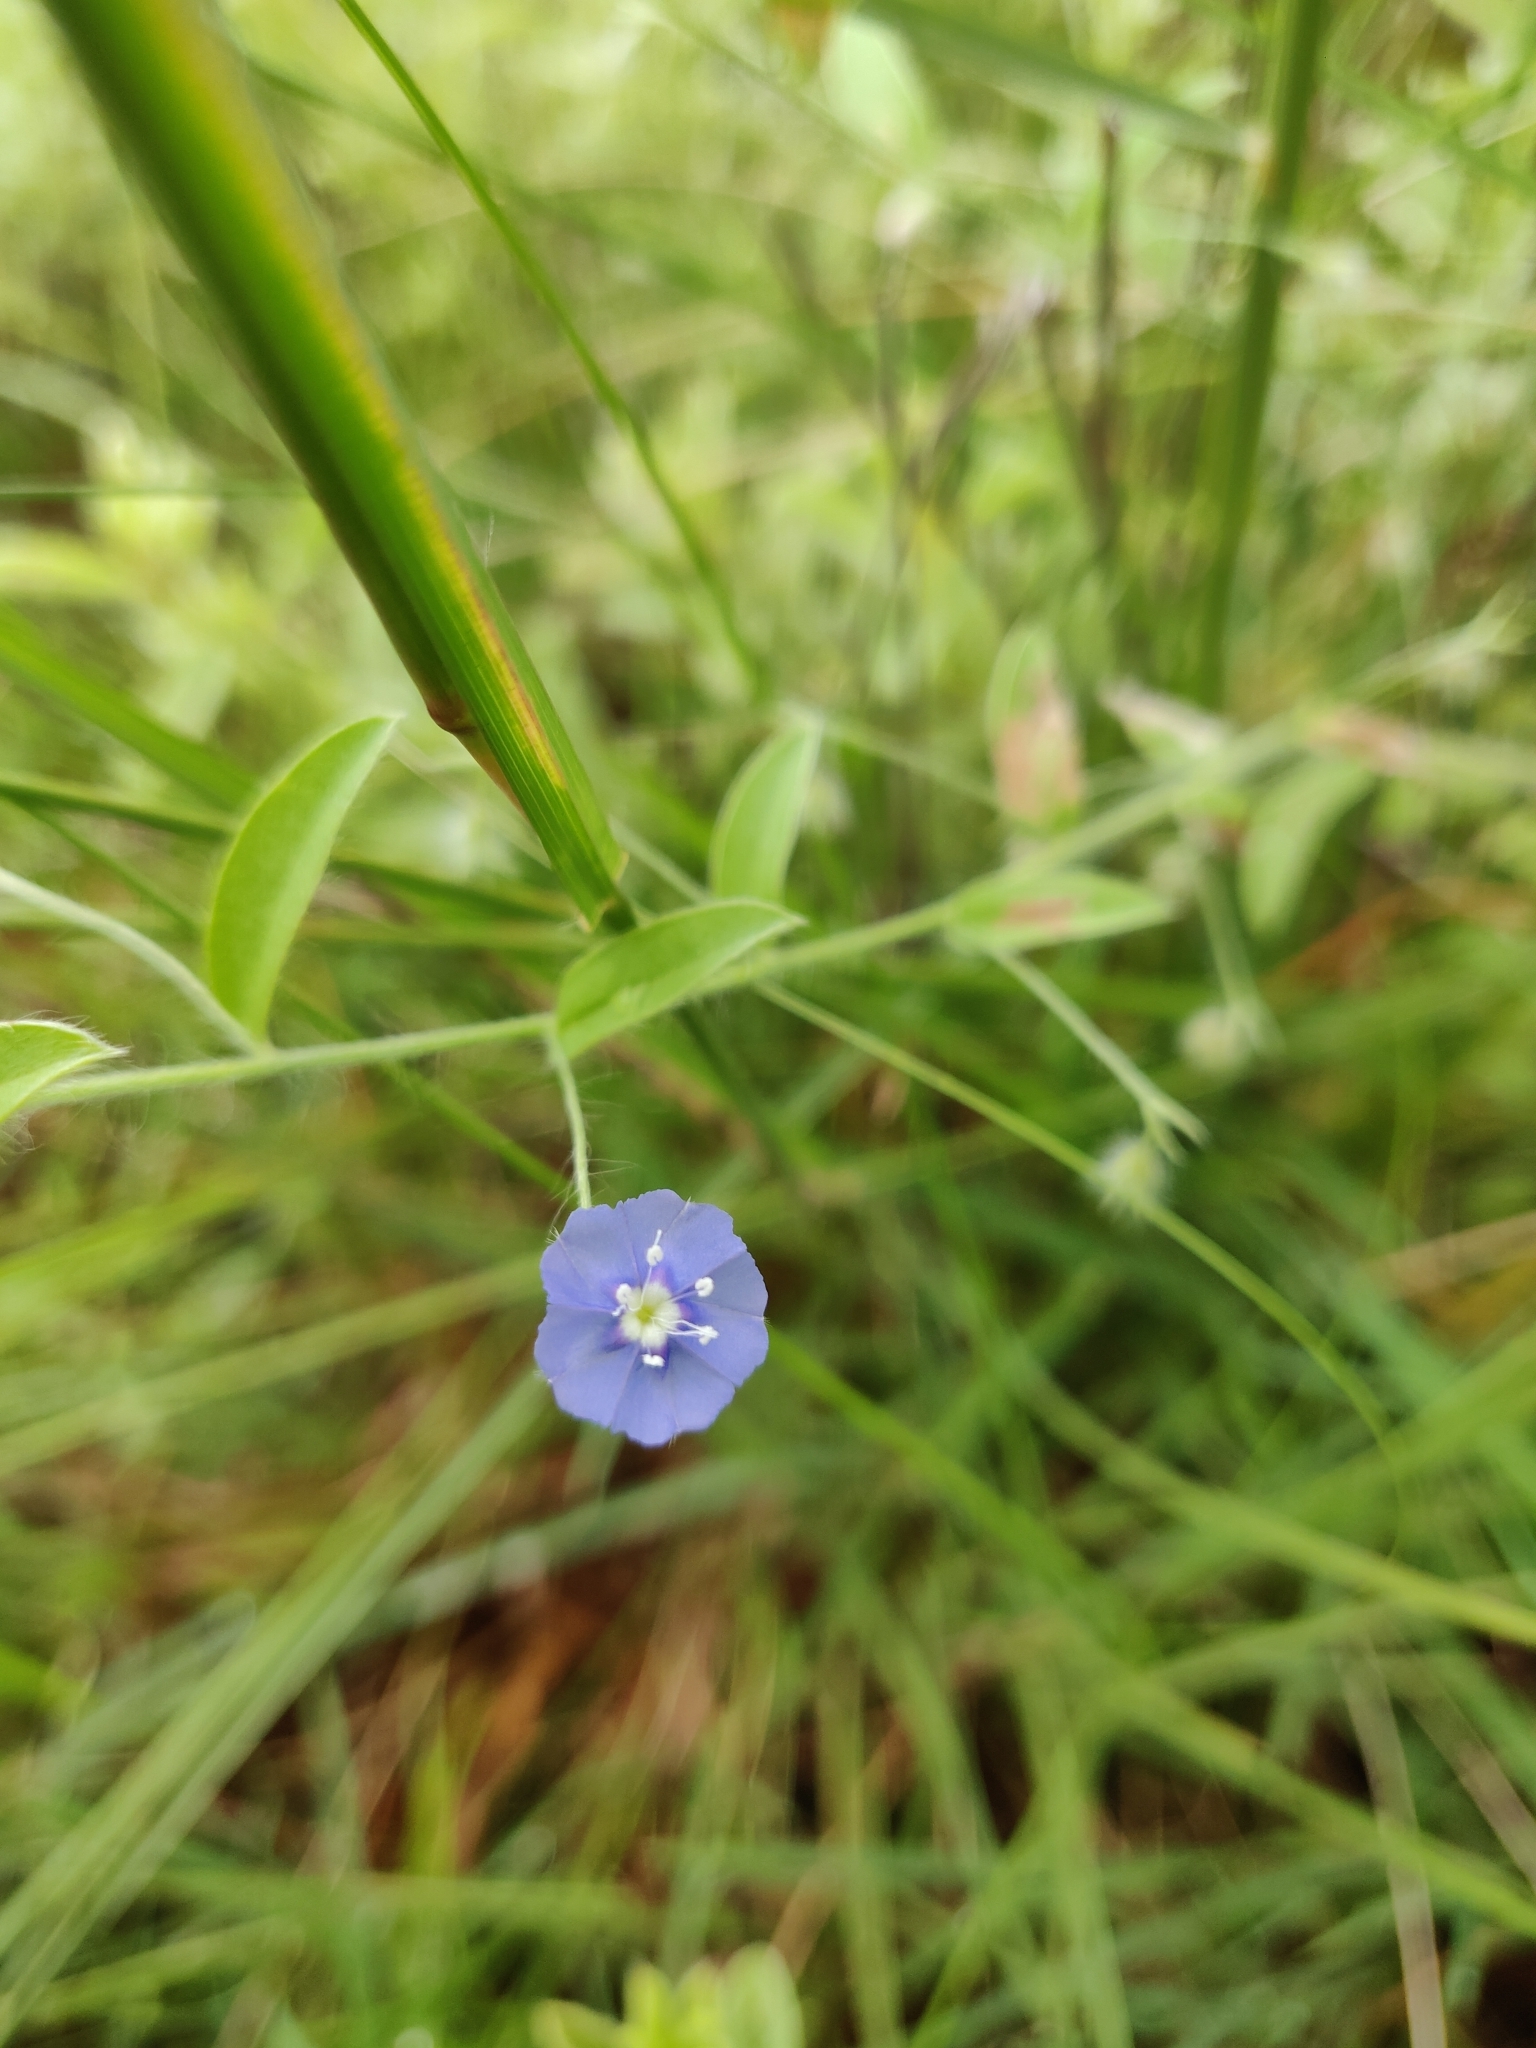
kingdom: Plantae
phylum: Tracheophyta
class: Magnoliopsida
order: Solanales
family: Convolvulaceae
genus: Evolvulus
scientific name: Evolvulus alsinoides
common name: Slender dwarf morning-glory
